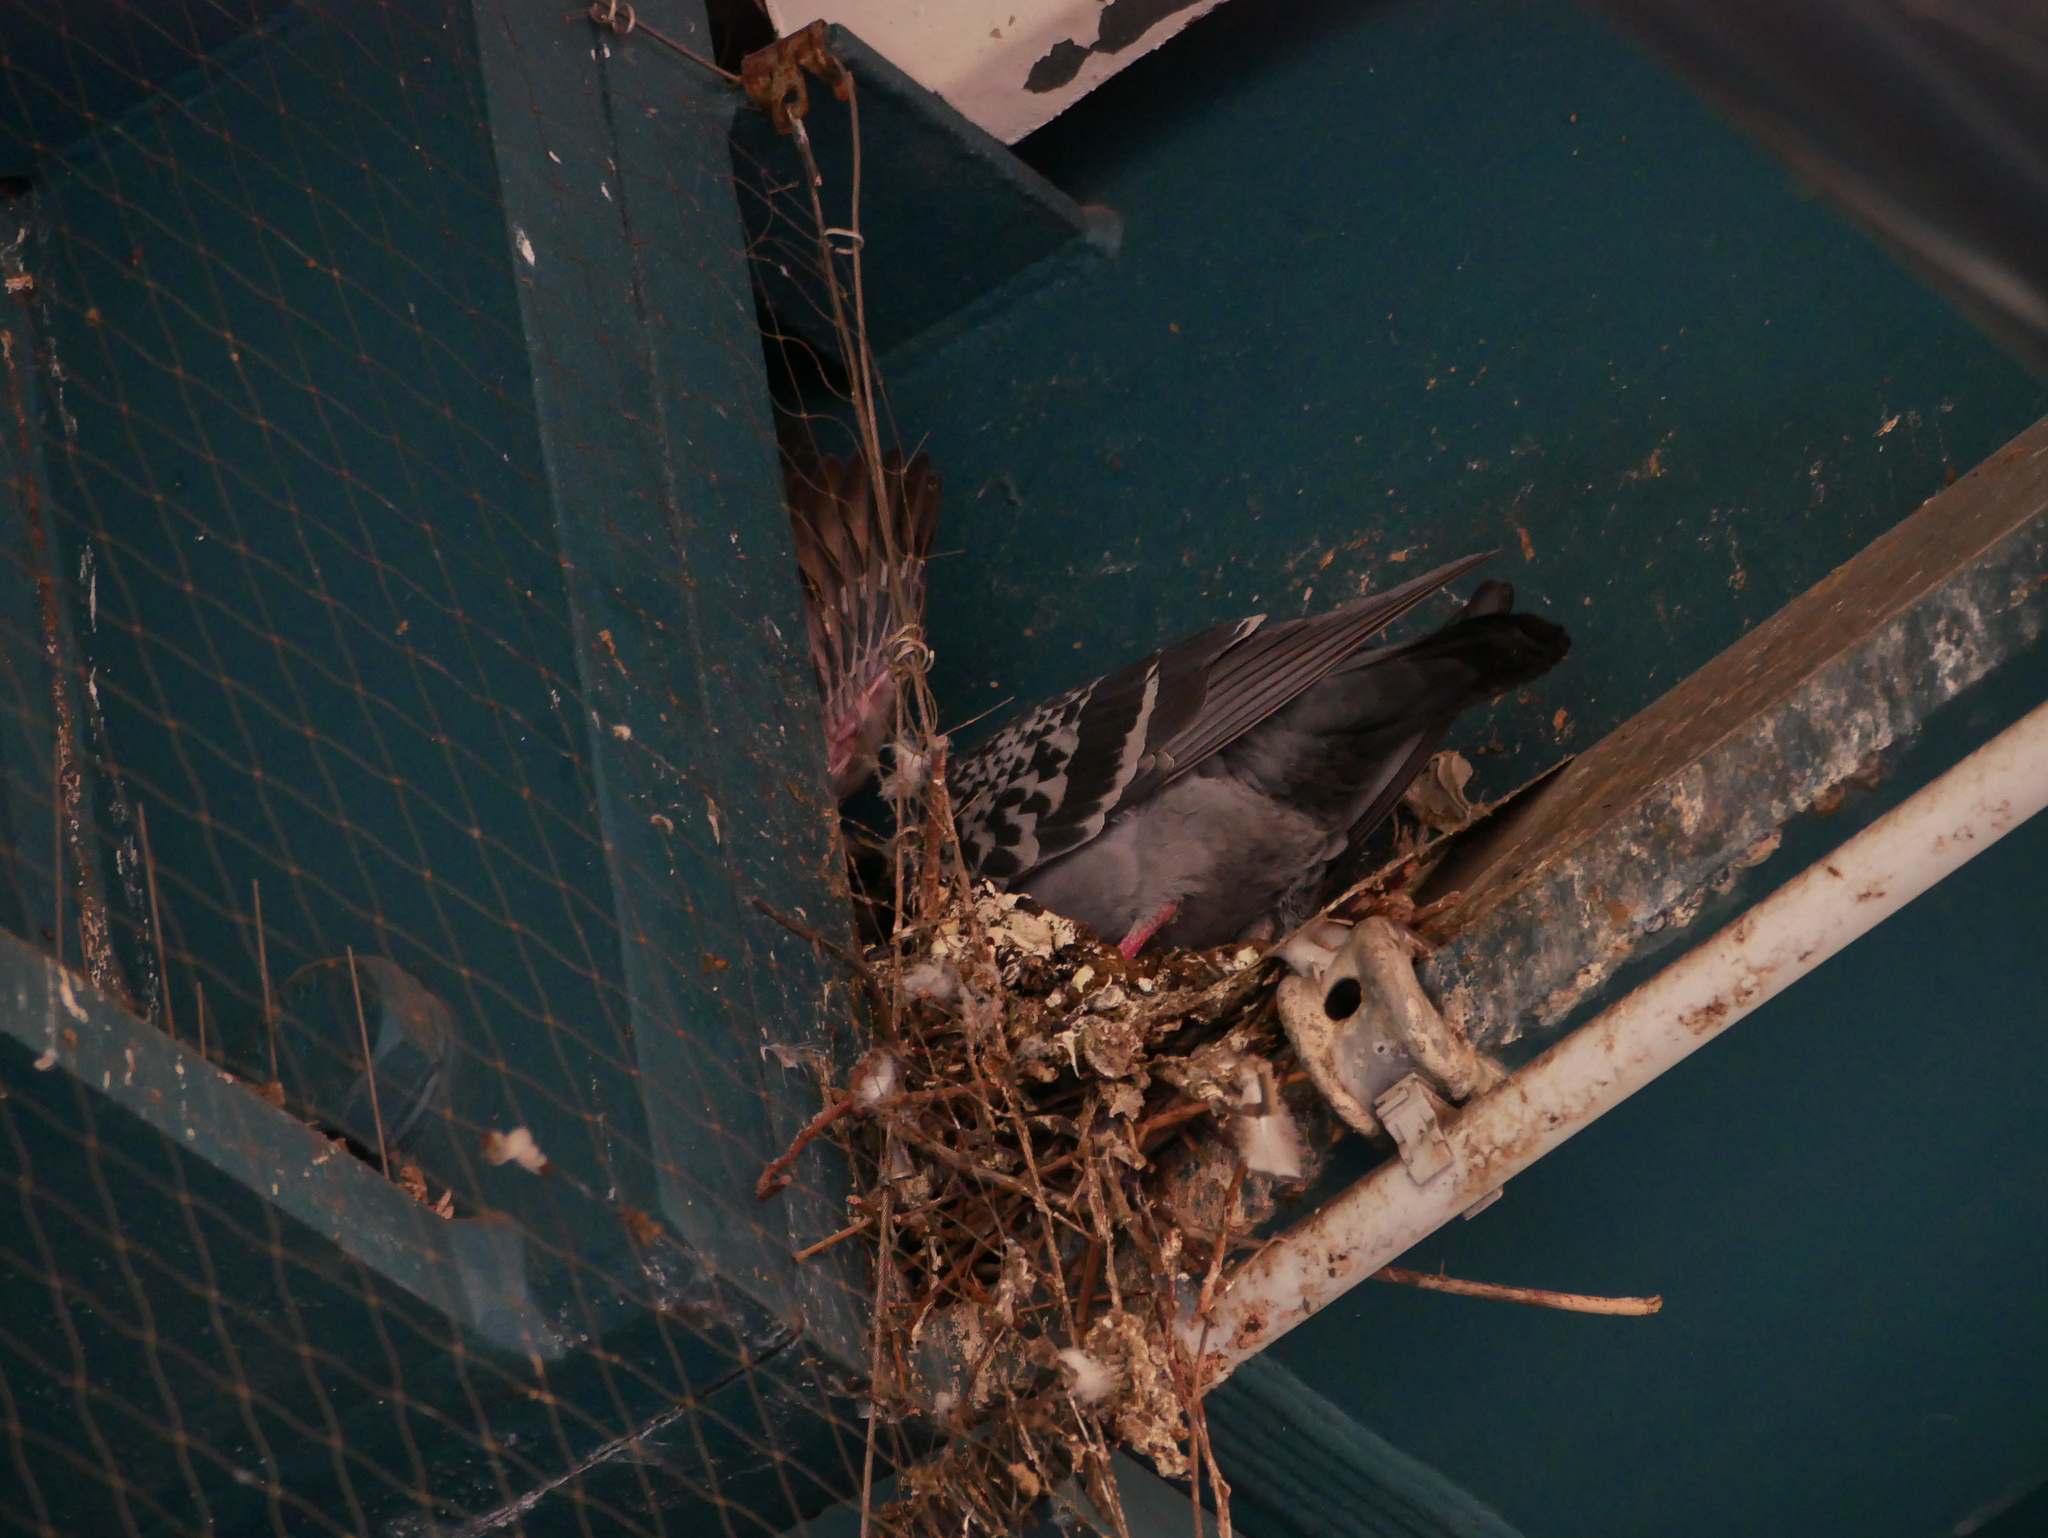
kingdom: Animalia
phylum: Chordata
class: Aves
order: Columbiformes
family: Columbidae
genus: Columba
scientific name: Columba livia
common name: Rock pigeon
